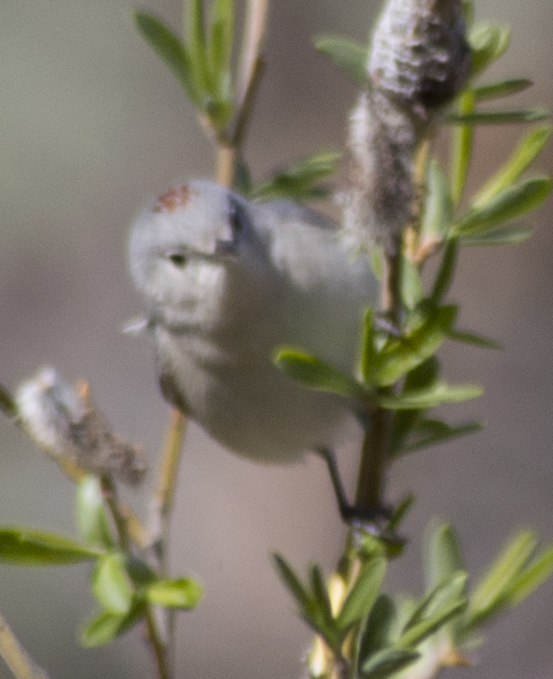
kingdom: Animalia
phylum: Chordata
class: Aves
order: Passeriformes
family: Parulidae
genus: Leiothlypis
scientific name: Leiothlypis luciae
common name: Lucy's warbler
